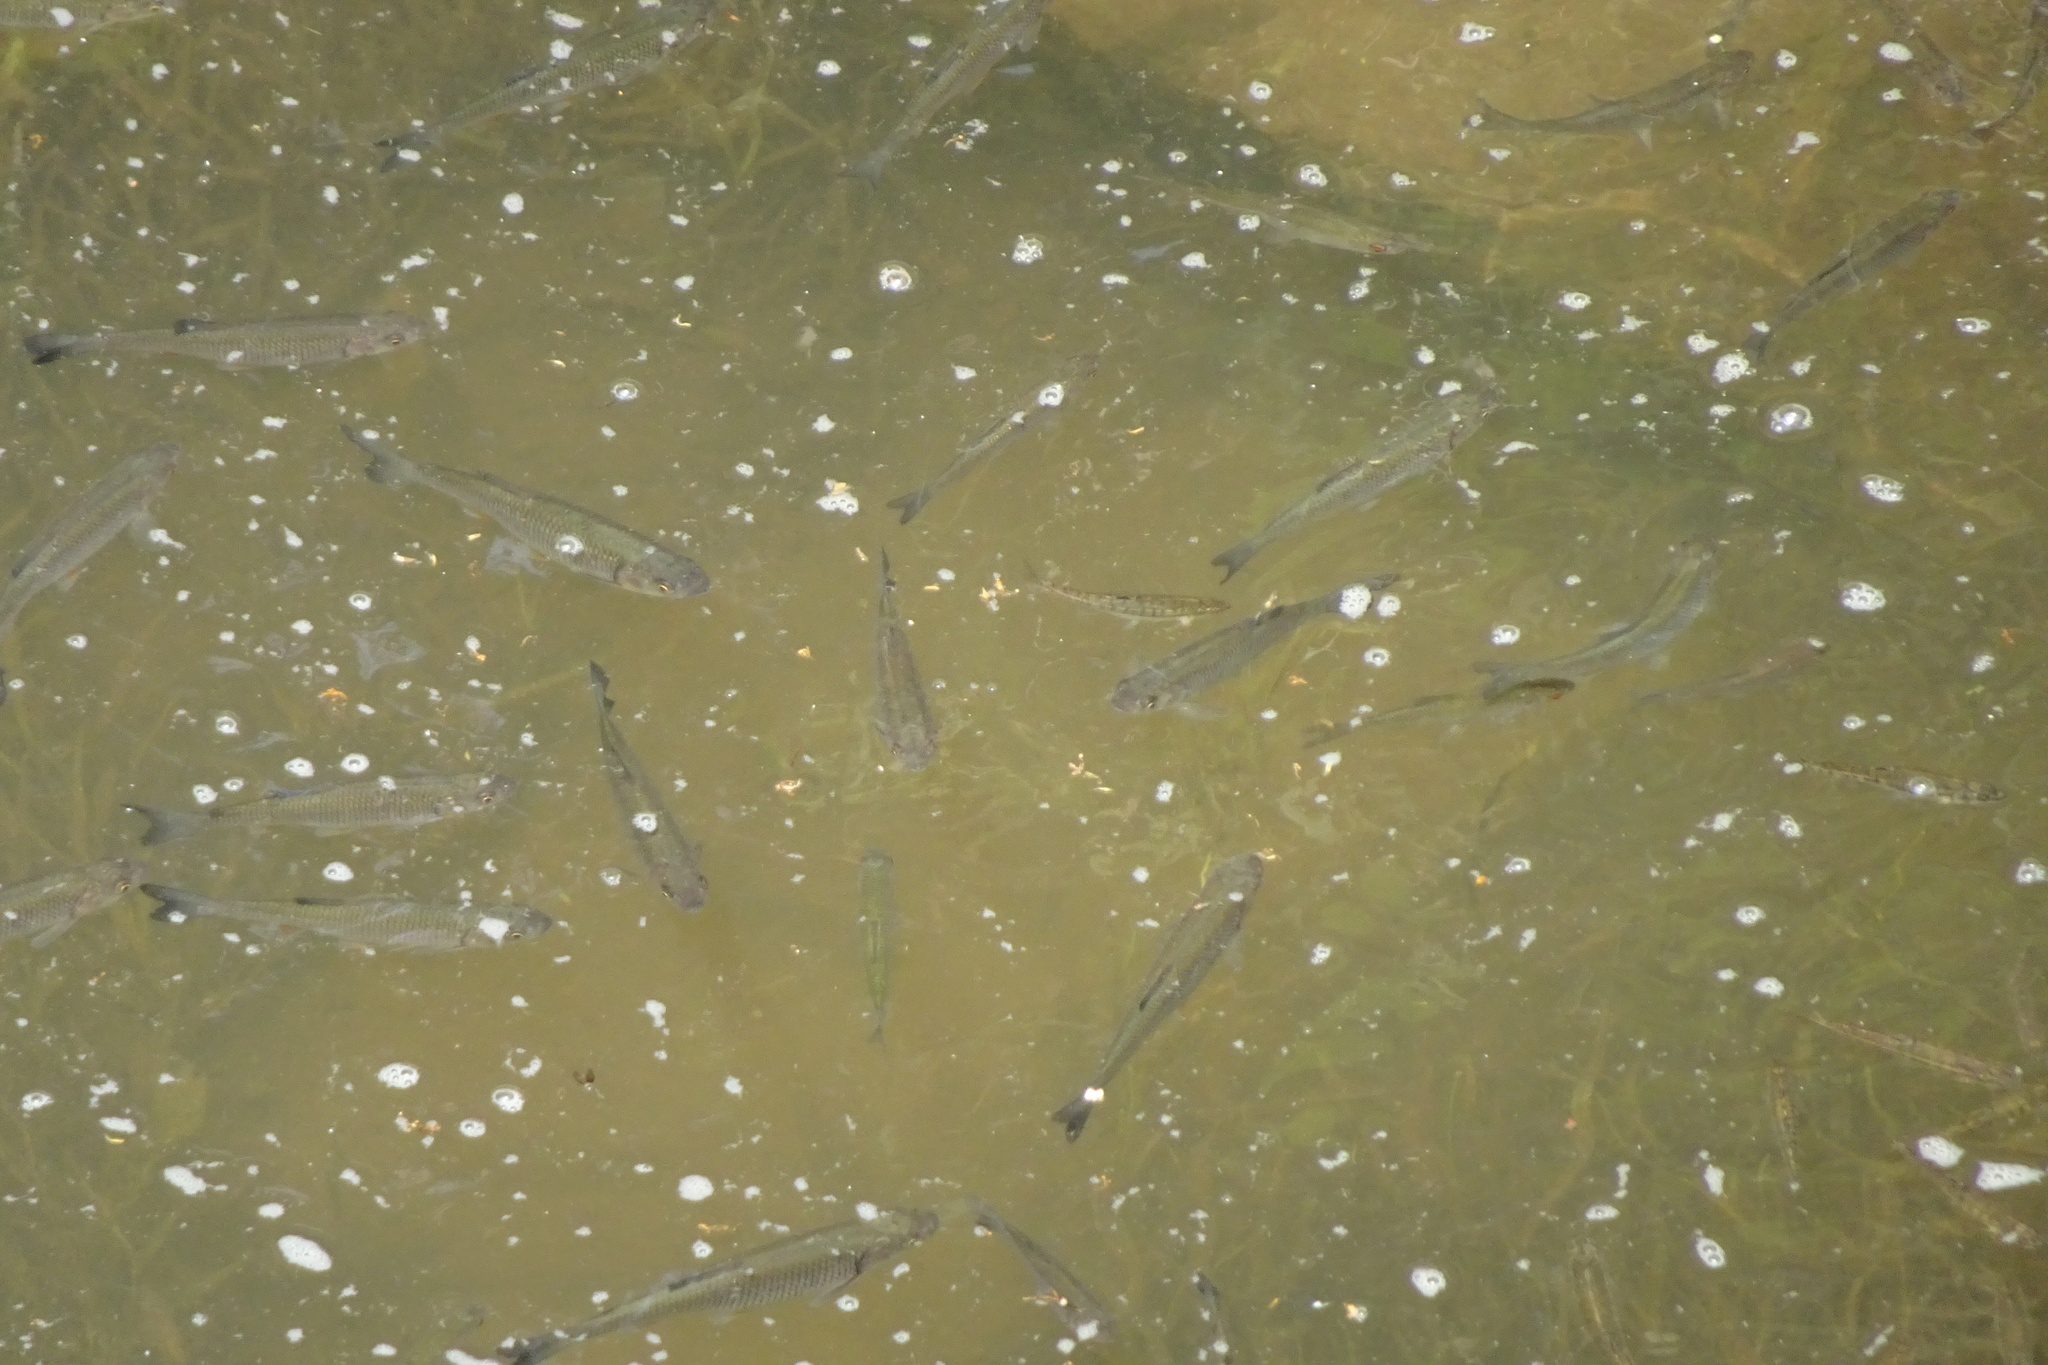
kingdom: Animalia
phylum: Chordata
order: Cypriniformes
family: Cyprinidae
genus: Squalius
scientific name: Squalius cephalus
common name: Chub
